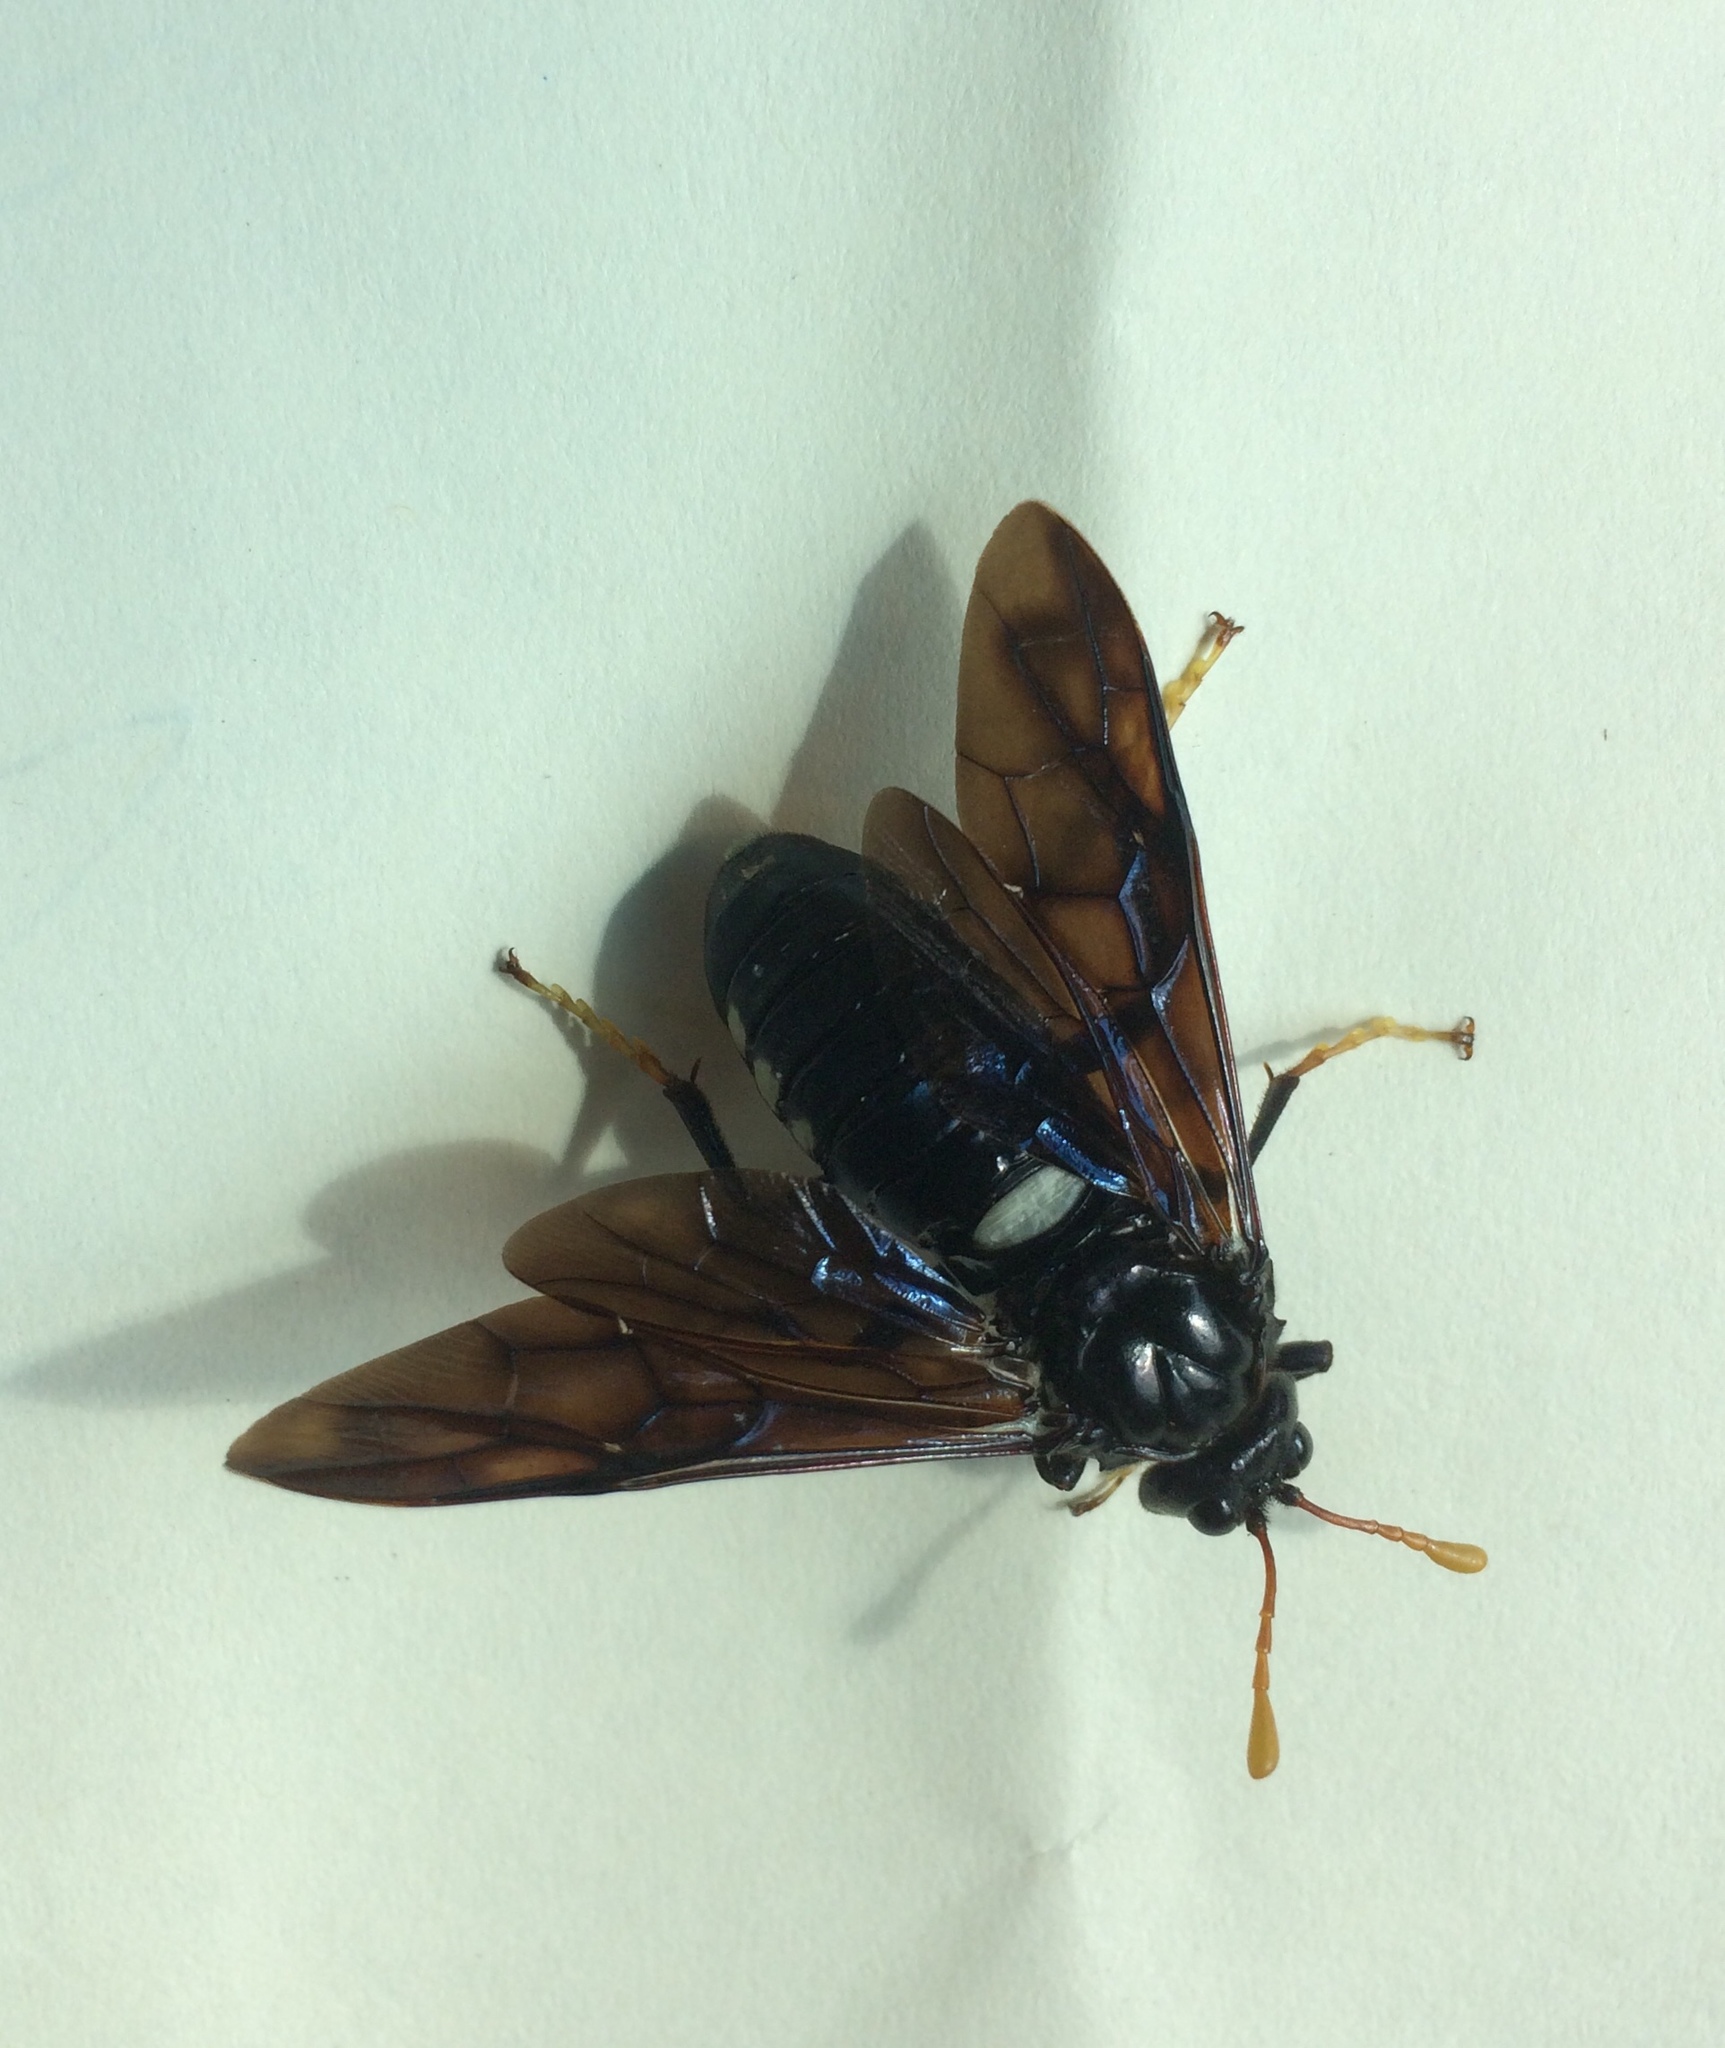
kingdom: Animalia
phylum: Arthropoda
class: Insecta
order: Hymenoptera
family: Cimbicidae
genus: Cimbex
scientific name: Cimbex americana
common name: Elm sawfly
